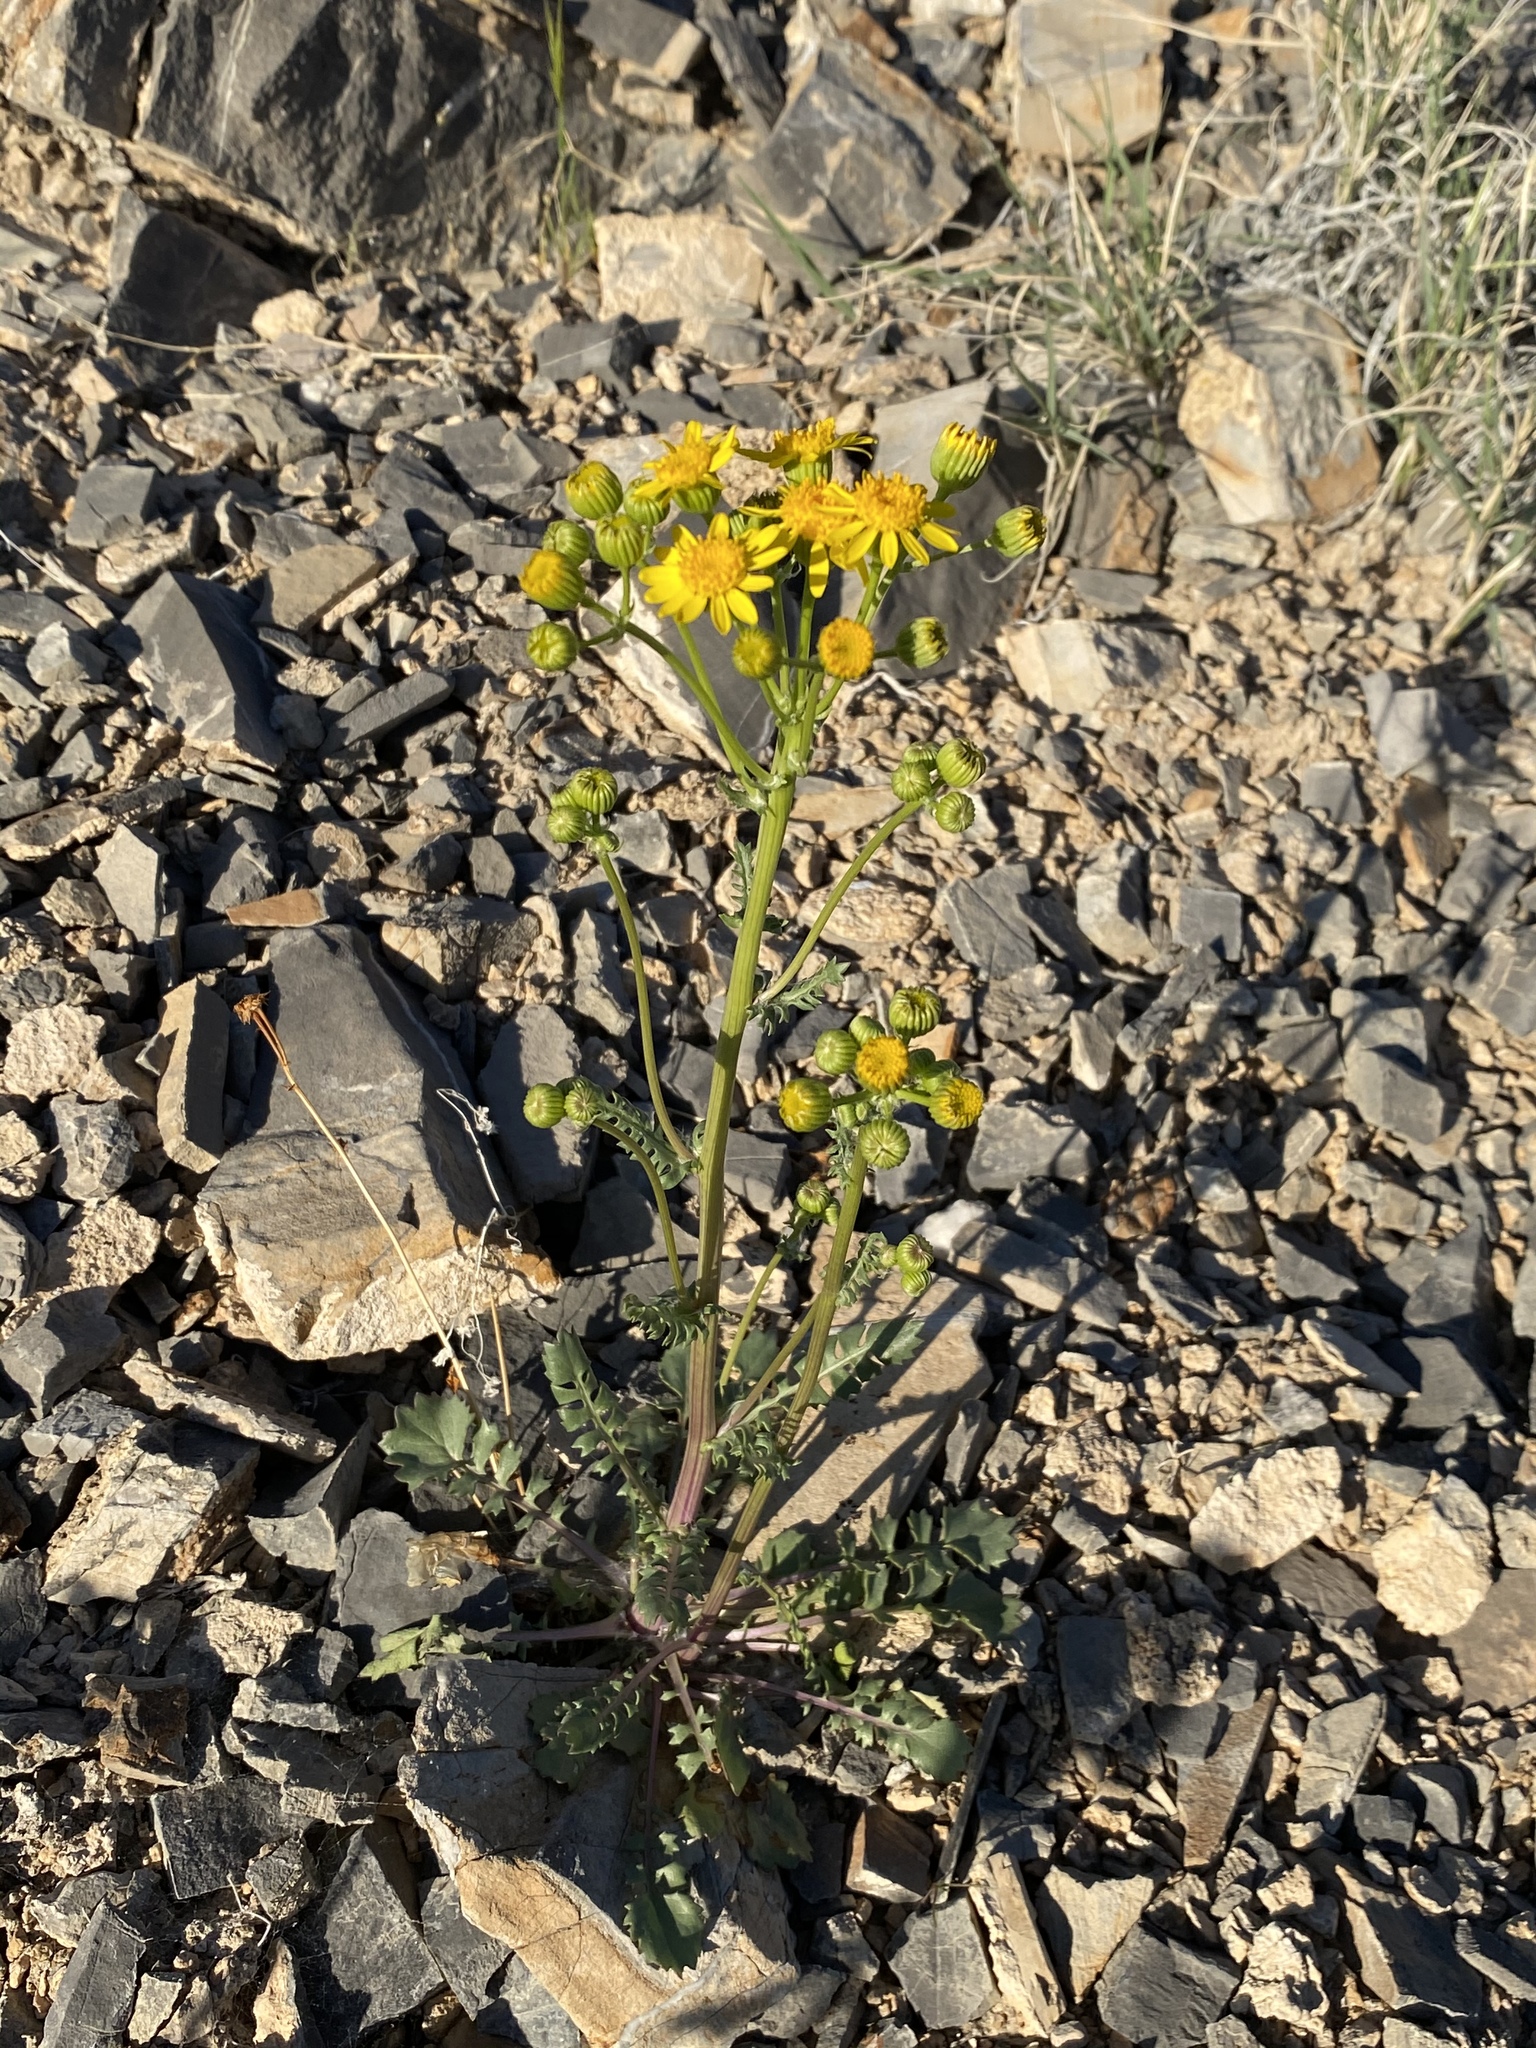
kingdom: Plantae
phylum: Tracheophyta
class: Magnoliopsida
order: Asterales
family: Asteraceae
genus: Packera
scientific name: Packera multilobata
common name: Lobe-leaf groundsel
